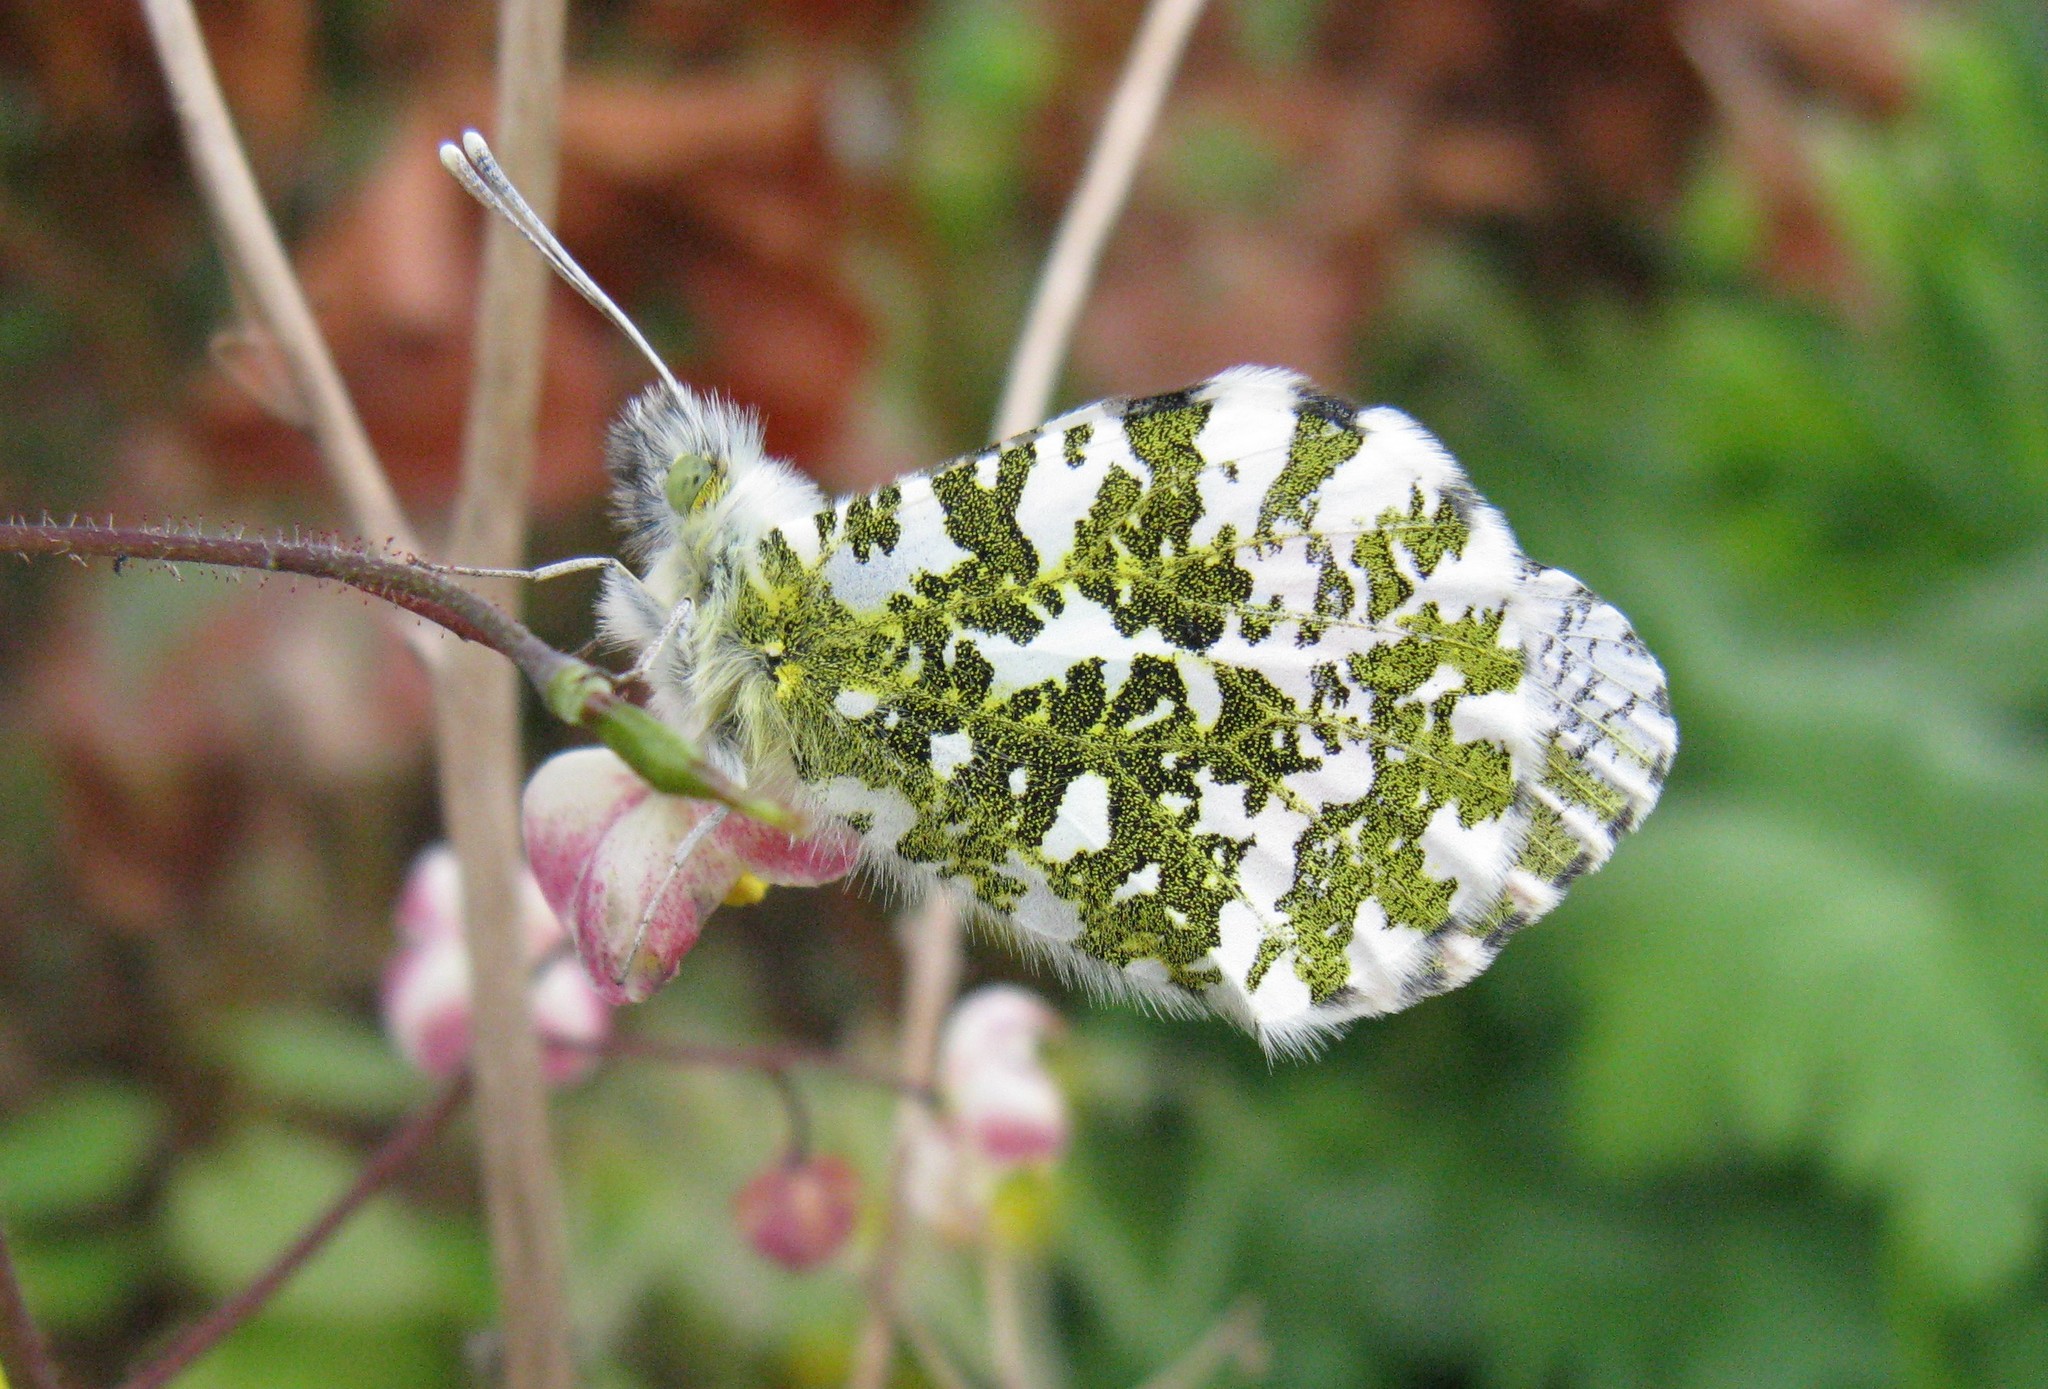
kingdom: Animalia
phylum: Arthropoda
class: Insecta
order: Lepidoptera
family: Pieridae
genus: Anthocharis
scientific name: Anthocharis cardamines
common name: Orange-tip
